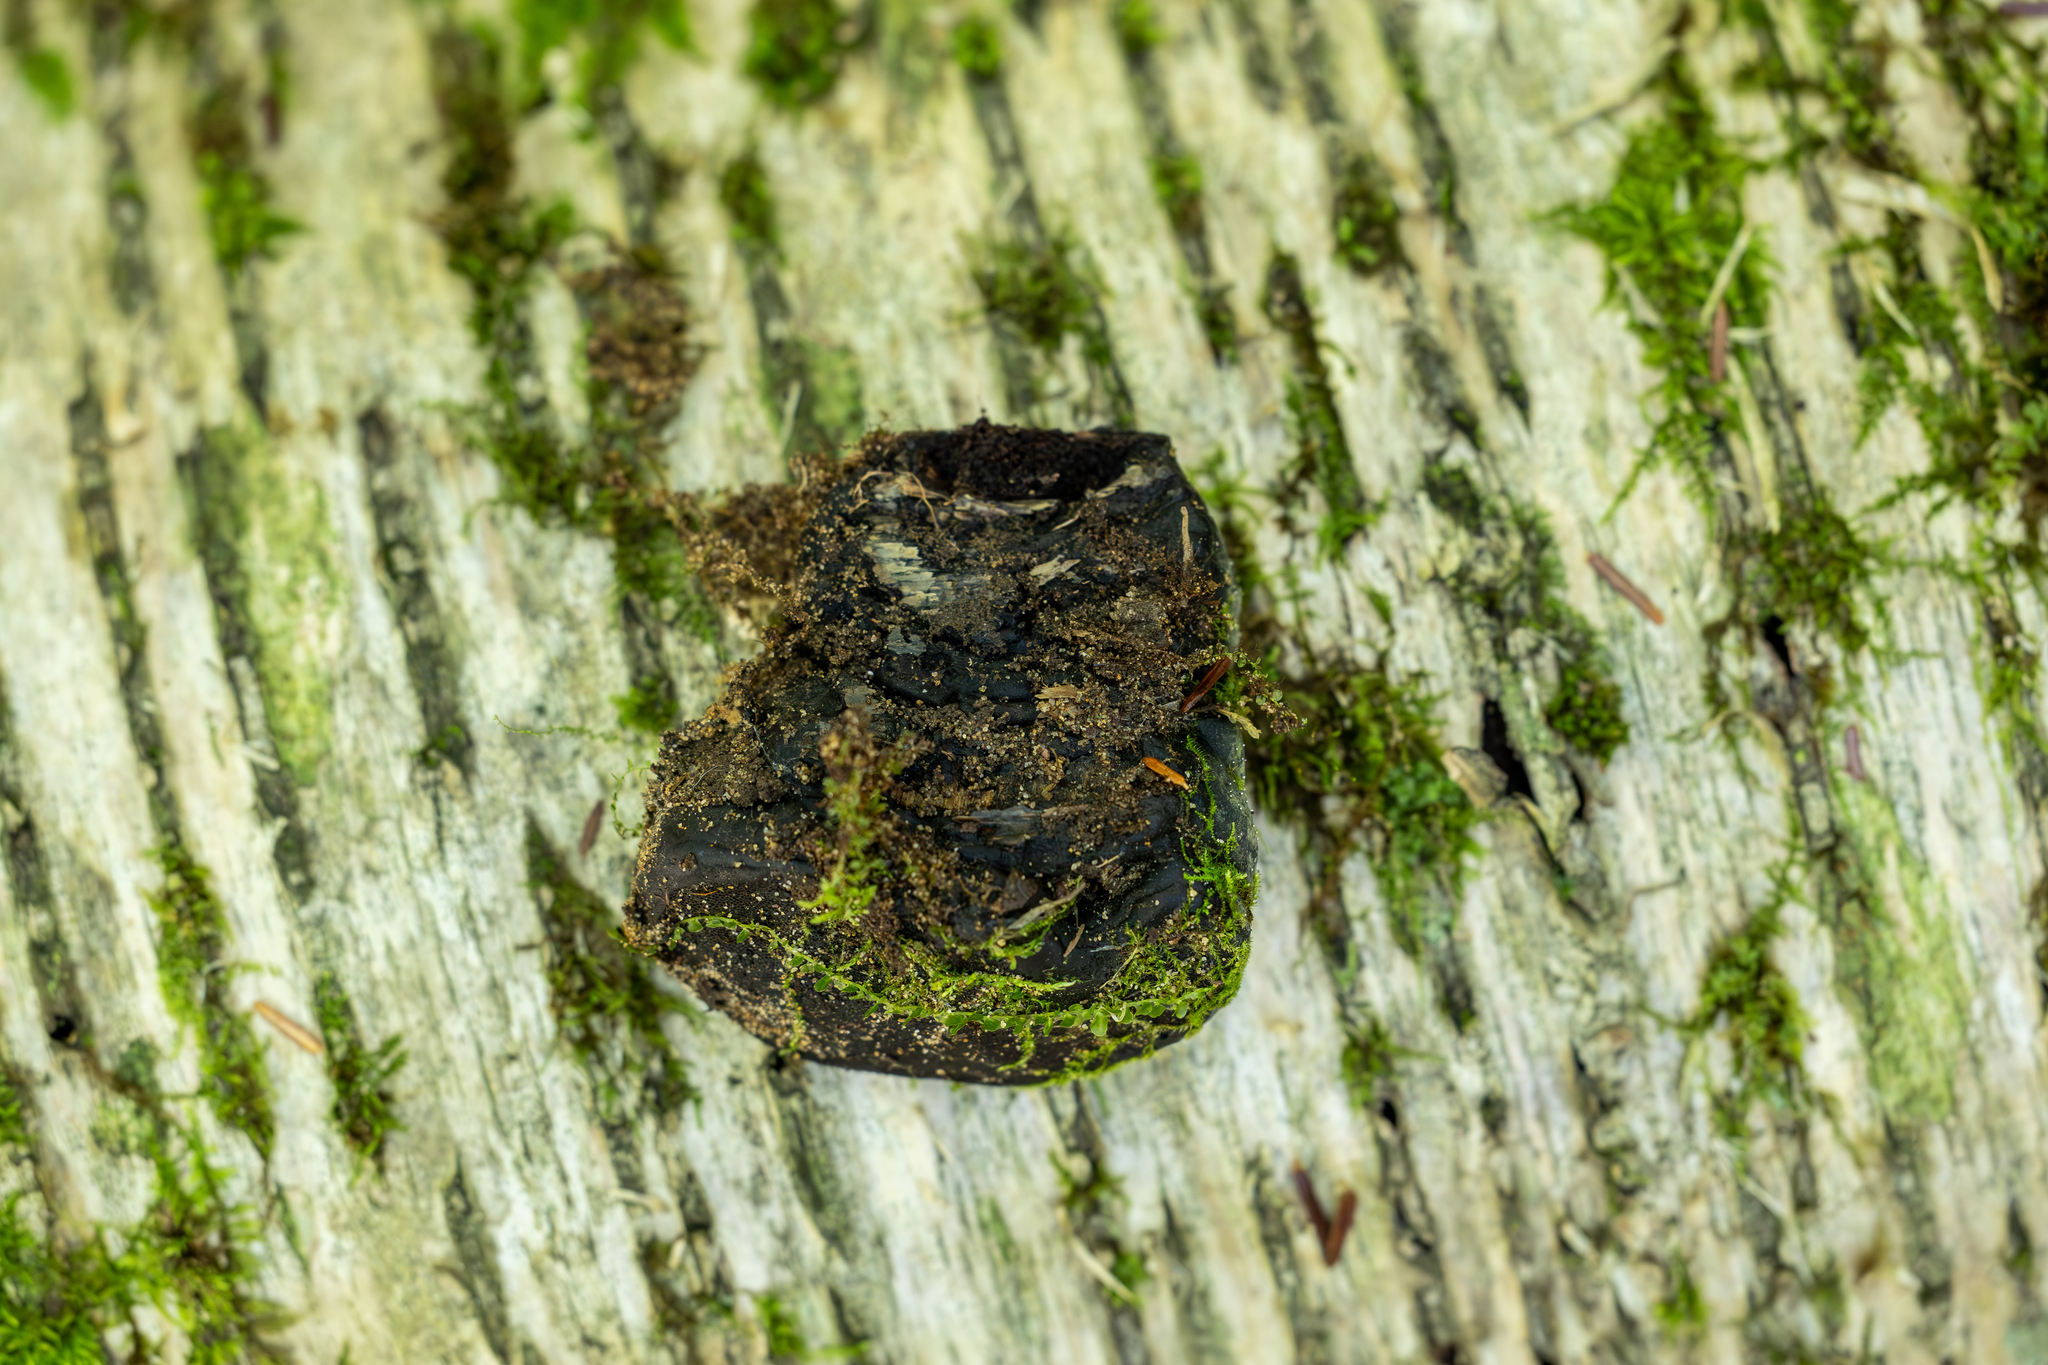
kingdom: Fungi
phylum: Basidiomycota
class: Agaricomycetes
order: Polyporales
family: Polyporaceae
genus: Fomes
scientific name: Fomes fomentarius
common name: Hoof fungus
